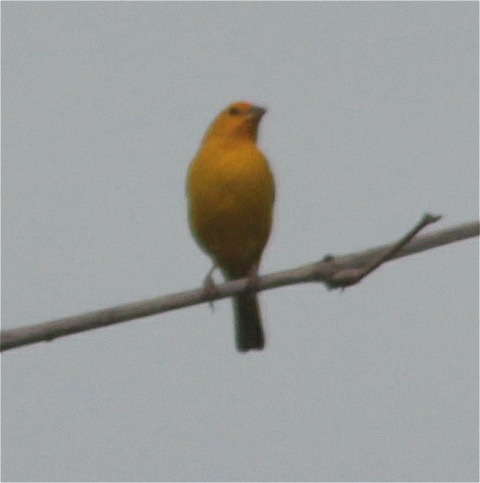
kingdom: Animalia
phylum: Chordata
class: Aves
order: Passeriformes
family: Thraupidae
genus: Sicalis
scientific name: Sicalis flaveola
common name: Saffron finch
